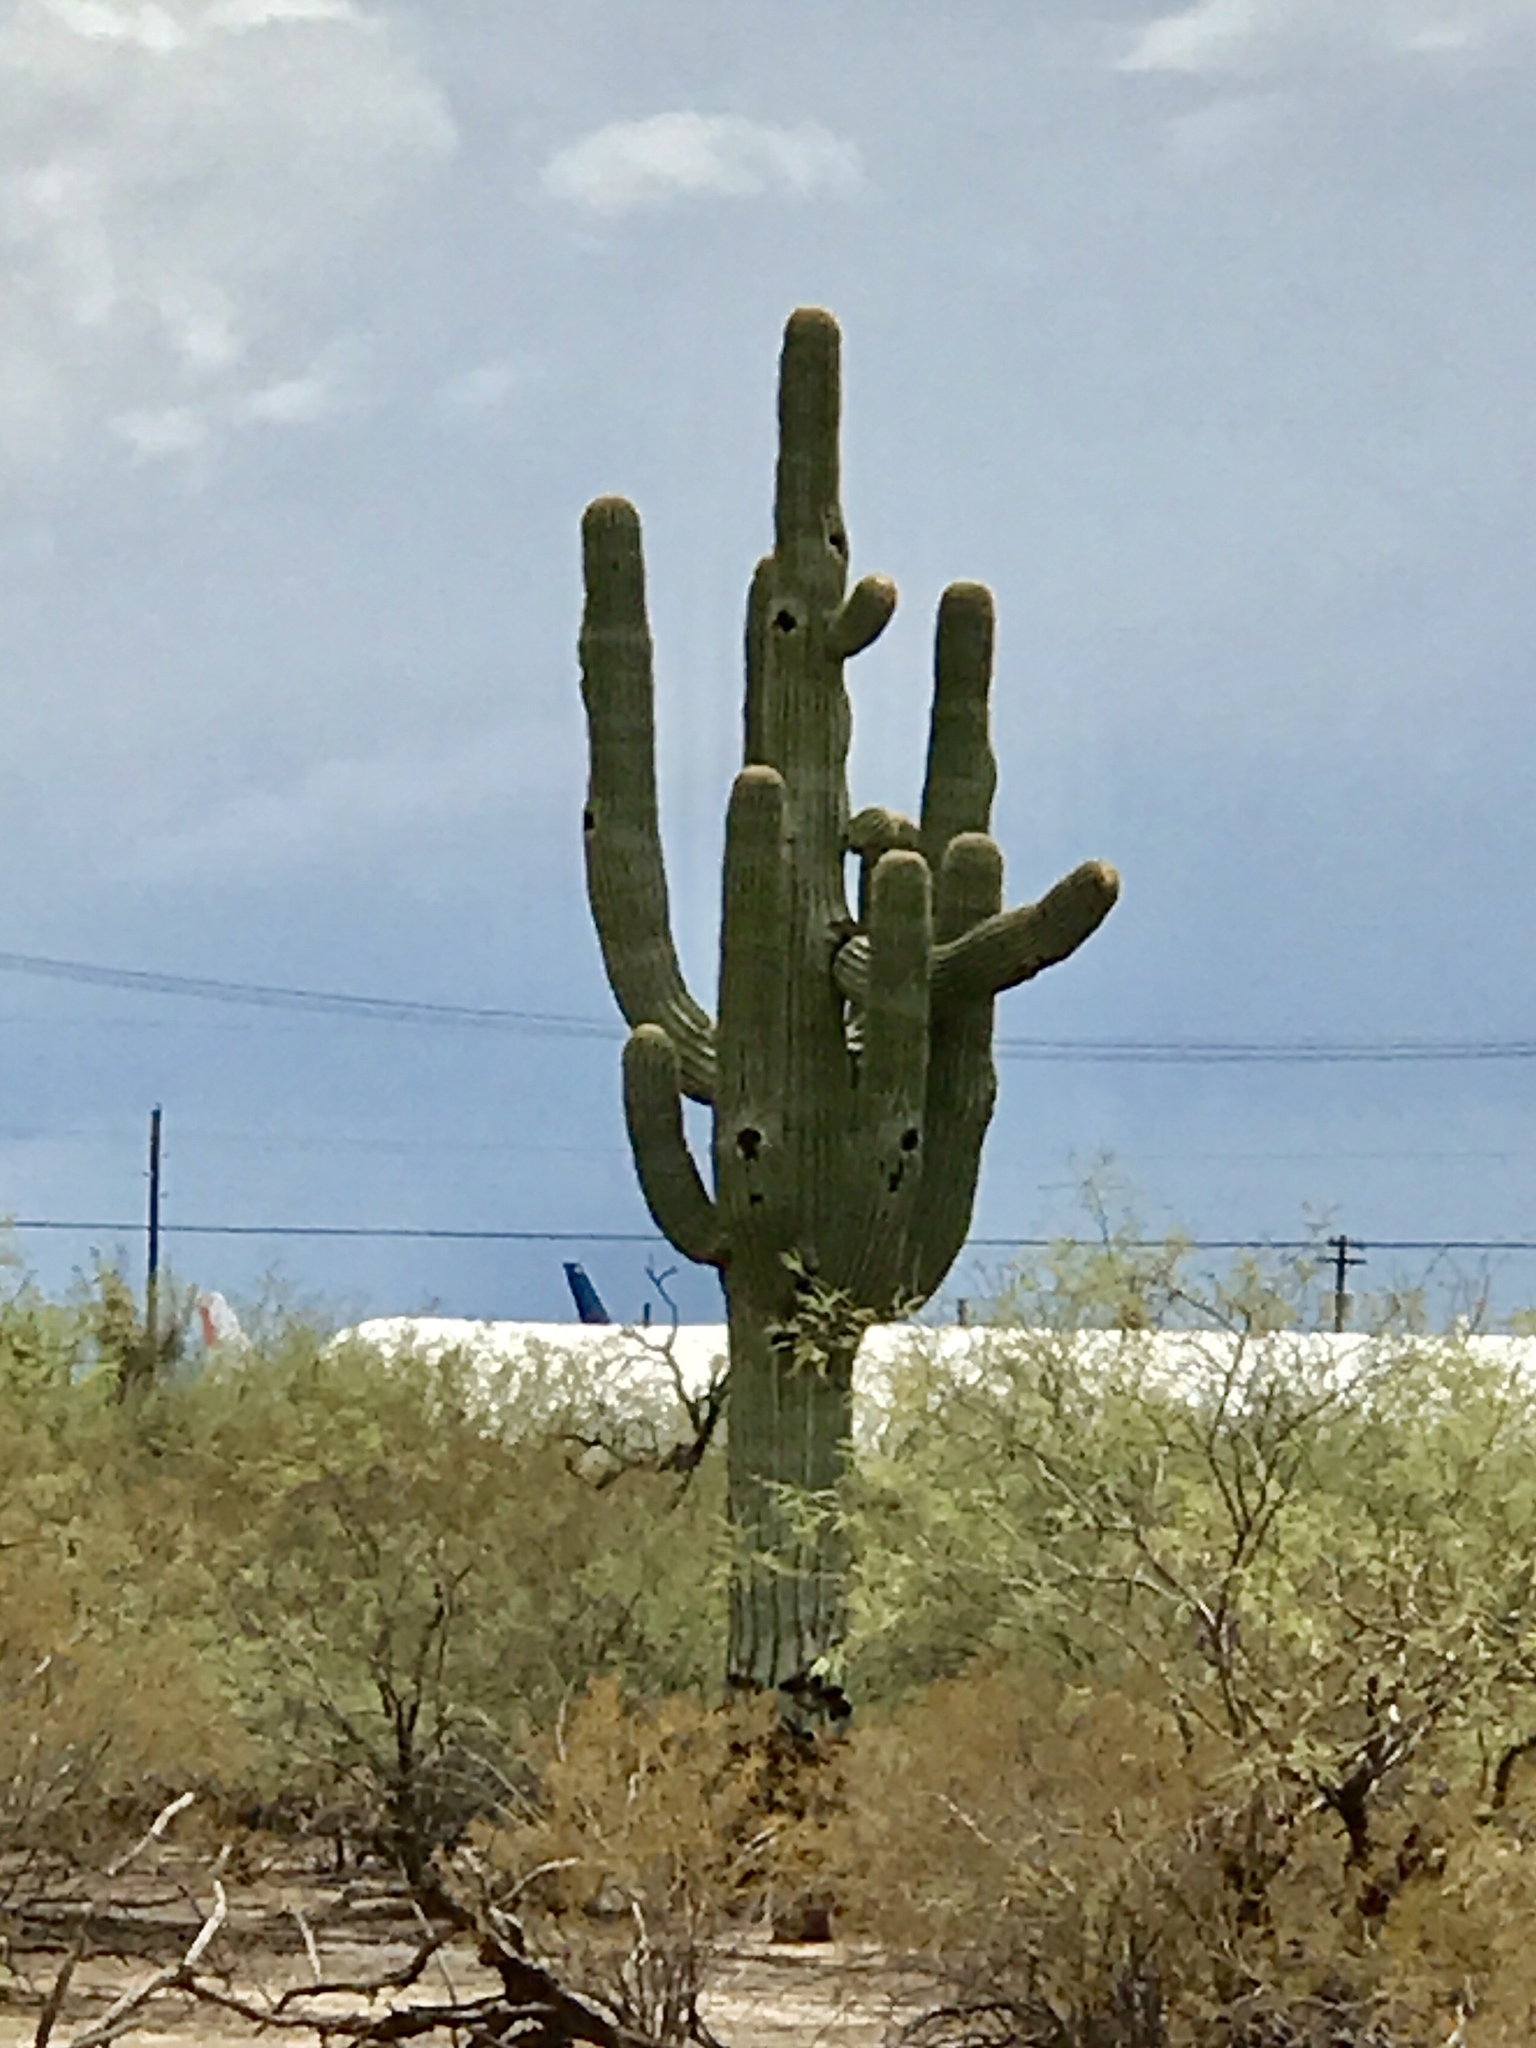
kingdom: Plantae
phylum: Tracheophyta
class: Magnoliopsida
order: Caryophyllales
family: Cactaceae
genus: Carnegiea
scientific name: Carnegiea gigantea
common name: Saguaro
